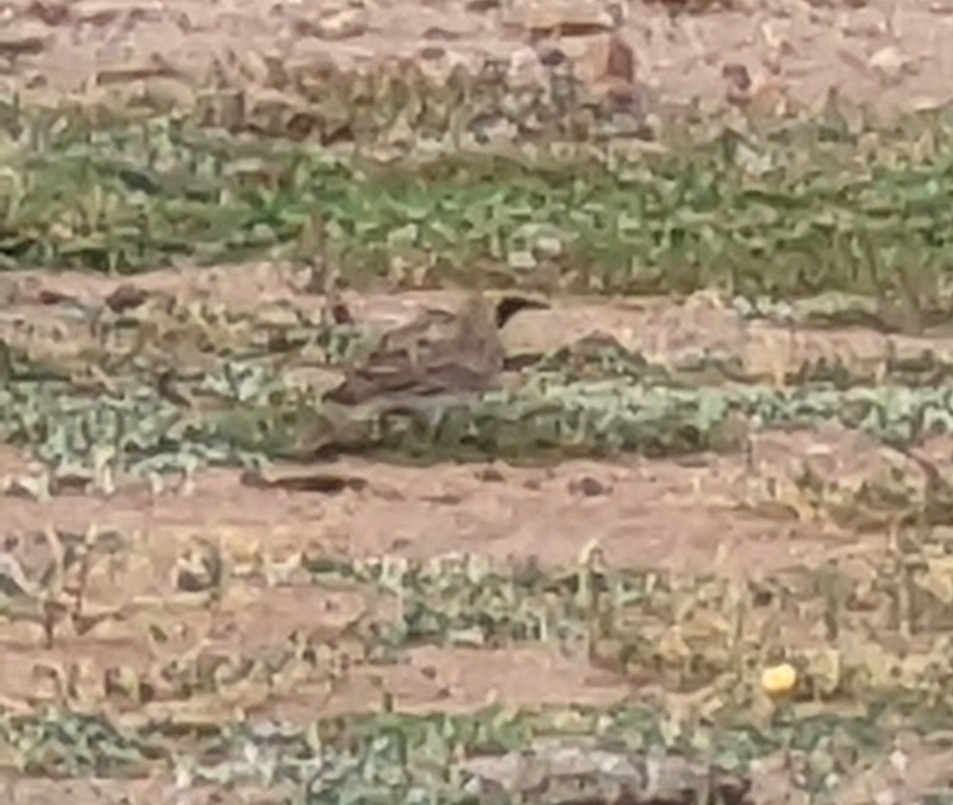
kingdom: Animalia
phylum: Chordata
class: Aves
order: Passeriformes
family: Alaudidae
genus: Eremophila
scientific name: Eremophila alpestris
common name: Horned lark
